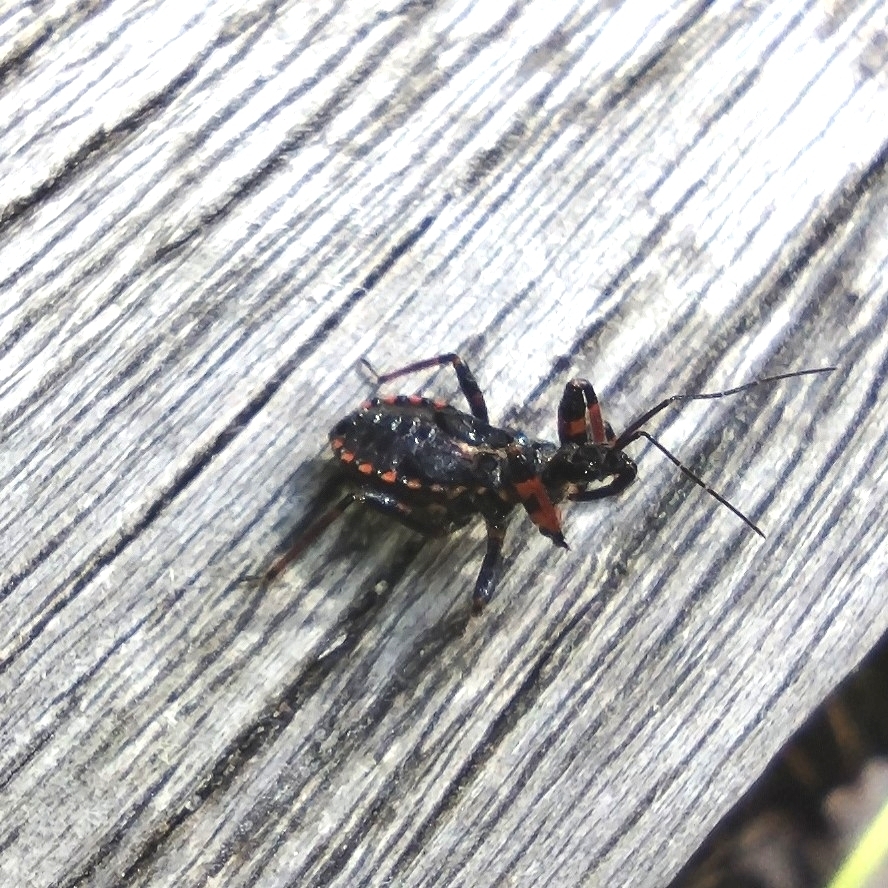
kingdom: Animalia
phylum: Arthropoda
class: Insecta
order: Hemiptera
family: Reduviidae
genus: Rhynocoris
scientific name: Rhynocoris annulatus
